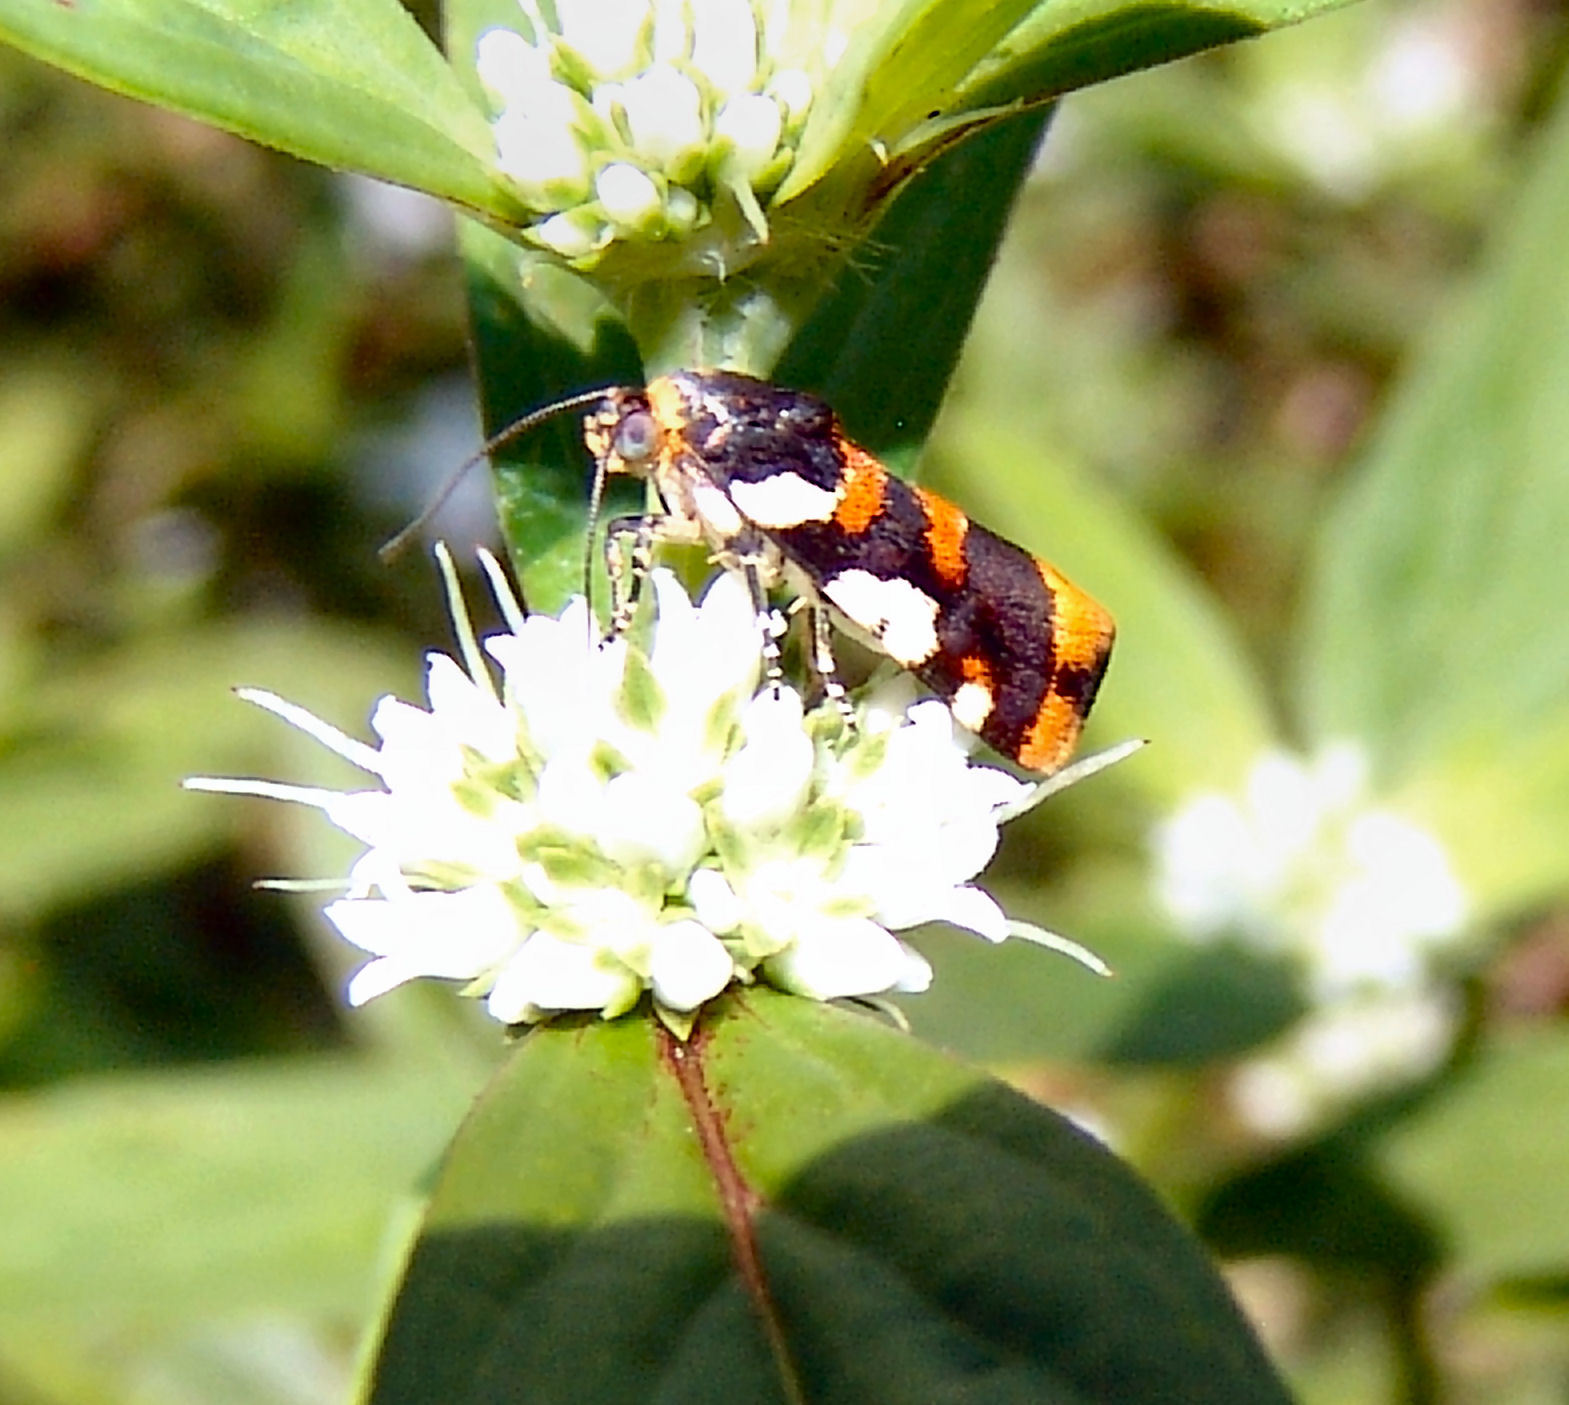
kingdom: Animalia
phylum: Arthropoda
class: Insecta
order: Lepidoptera
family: Noctuidae
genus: Acontia
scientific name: Acontia dama
